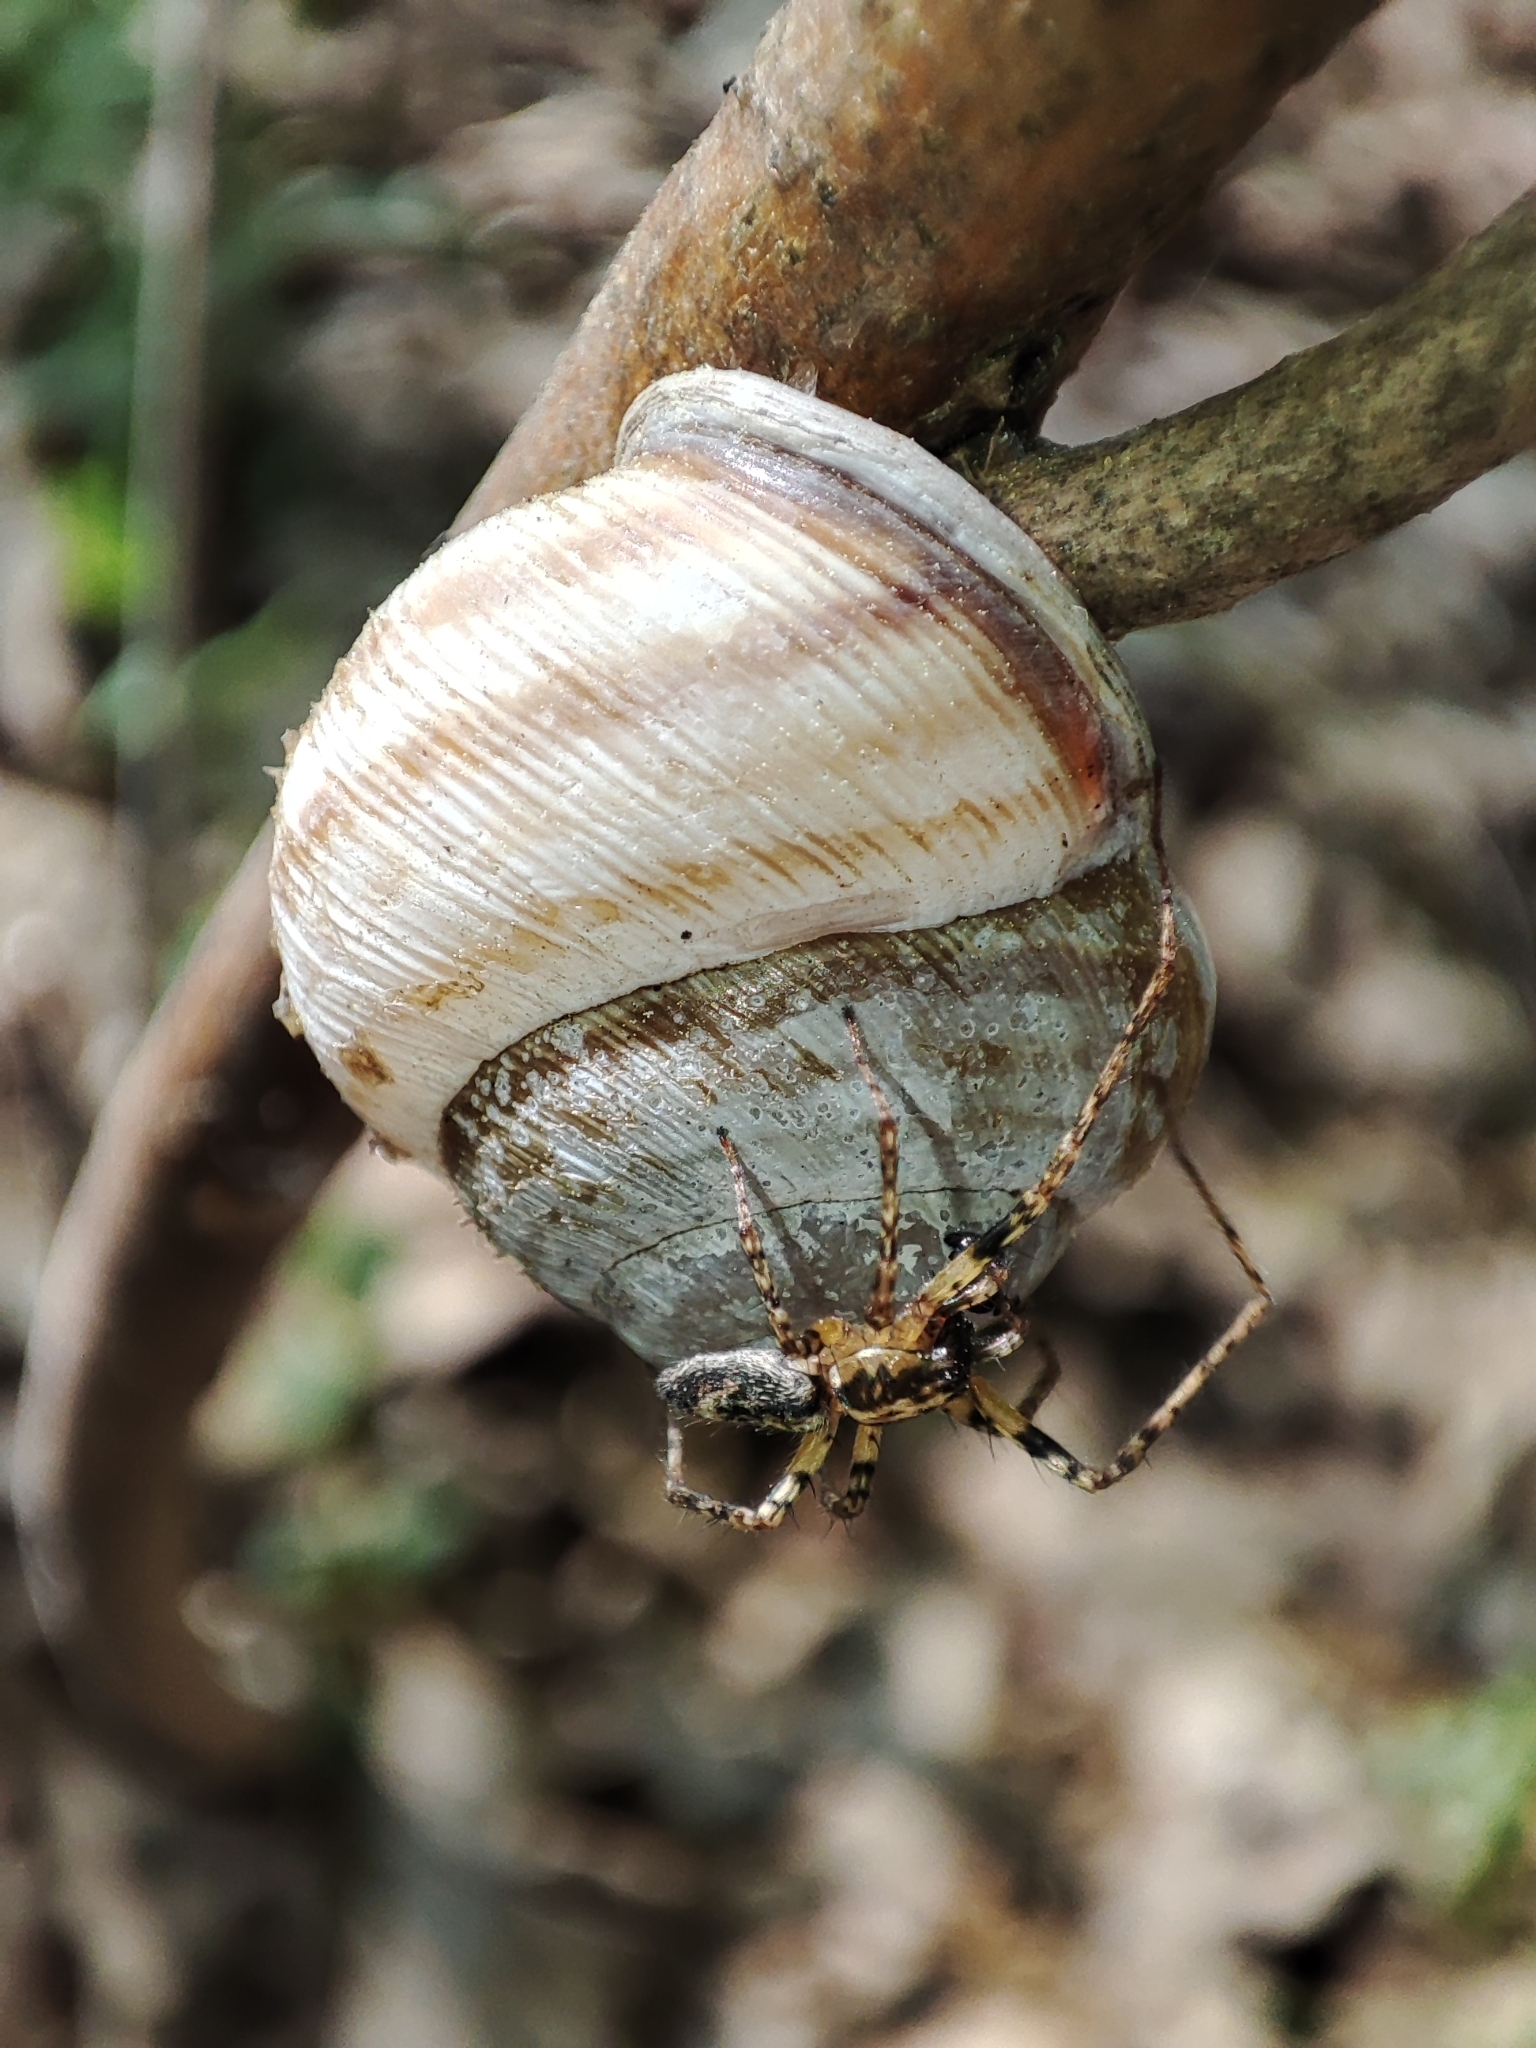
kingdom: Animalia
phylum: Mollusca
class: Gastropoda
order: Stylommatophora
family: Helicidae
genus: Caucasotachea
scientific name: Caucasotachea vindobonensis
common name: European helicid land snail
